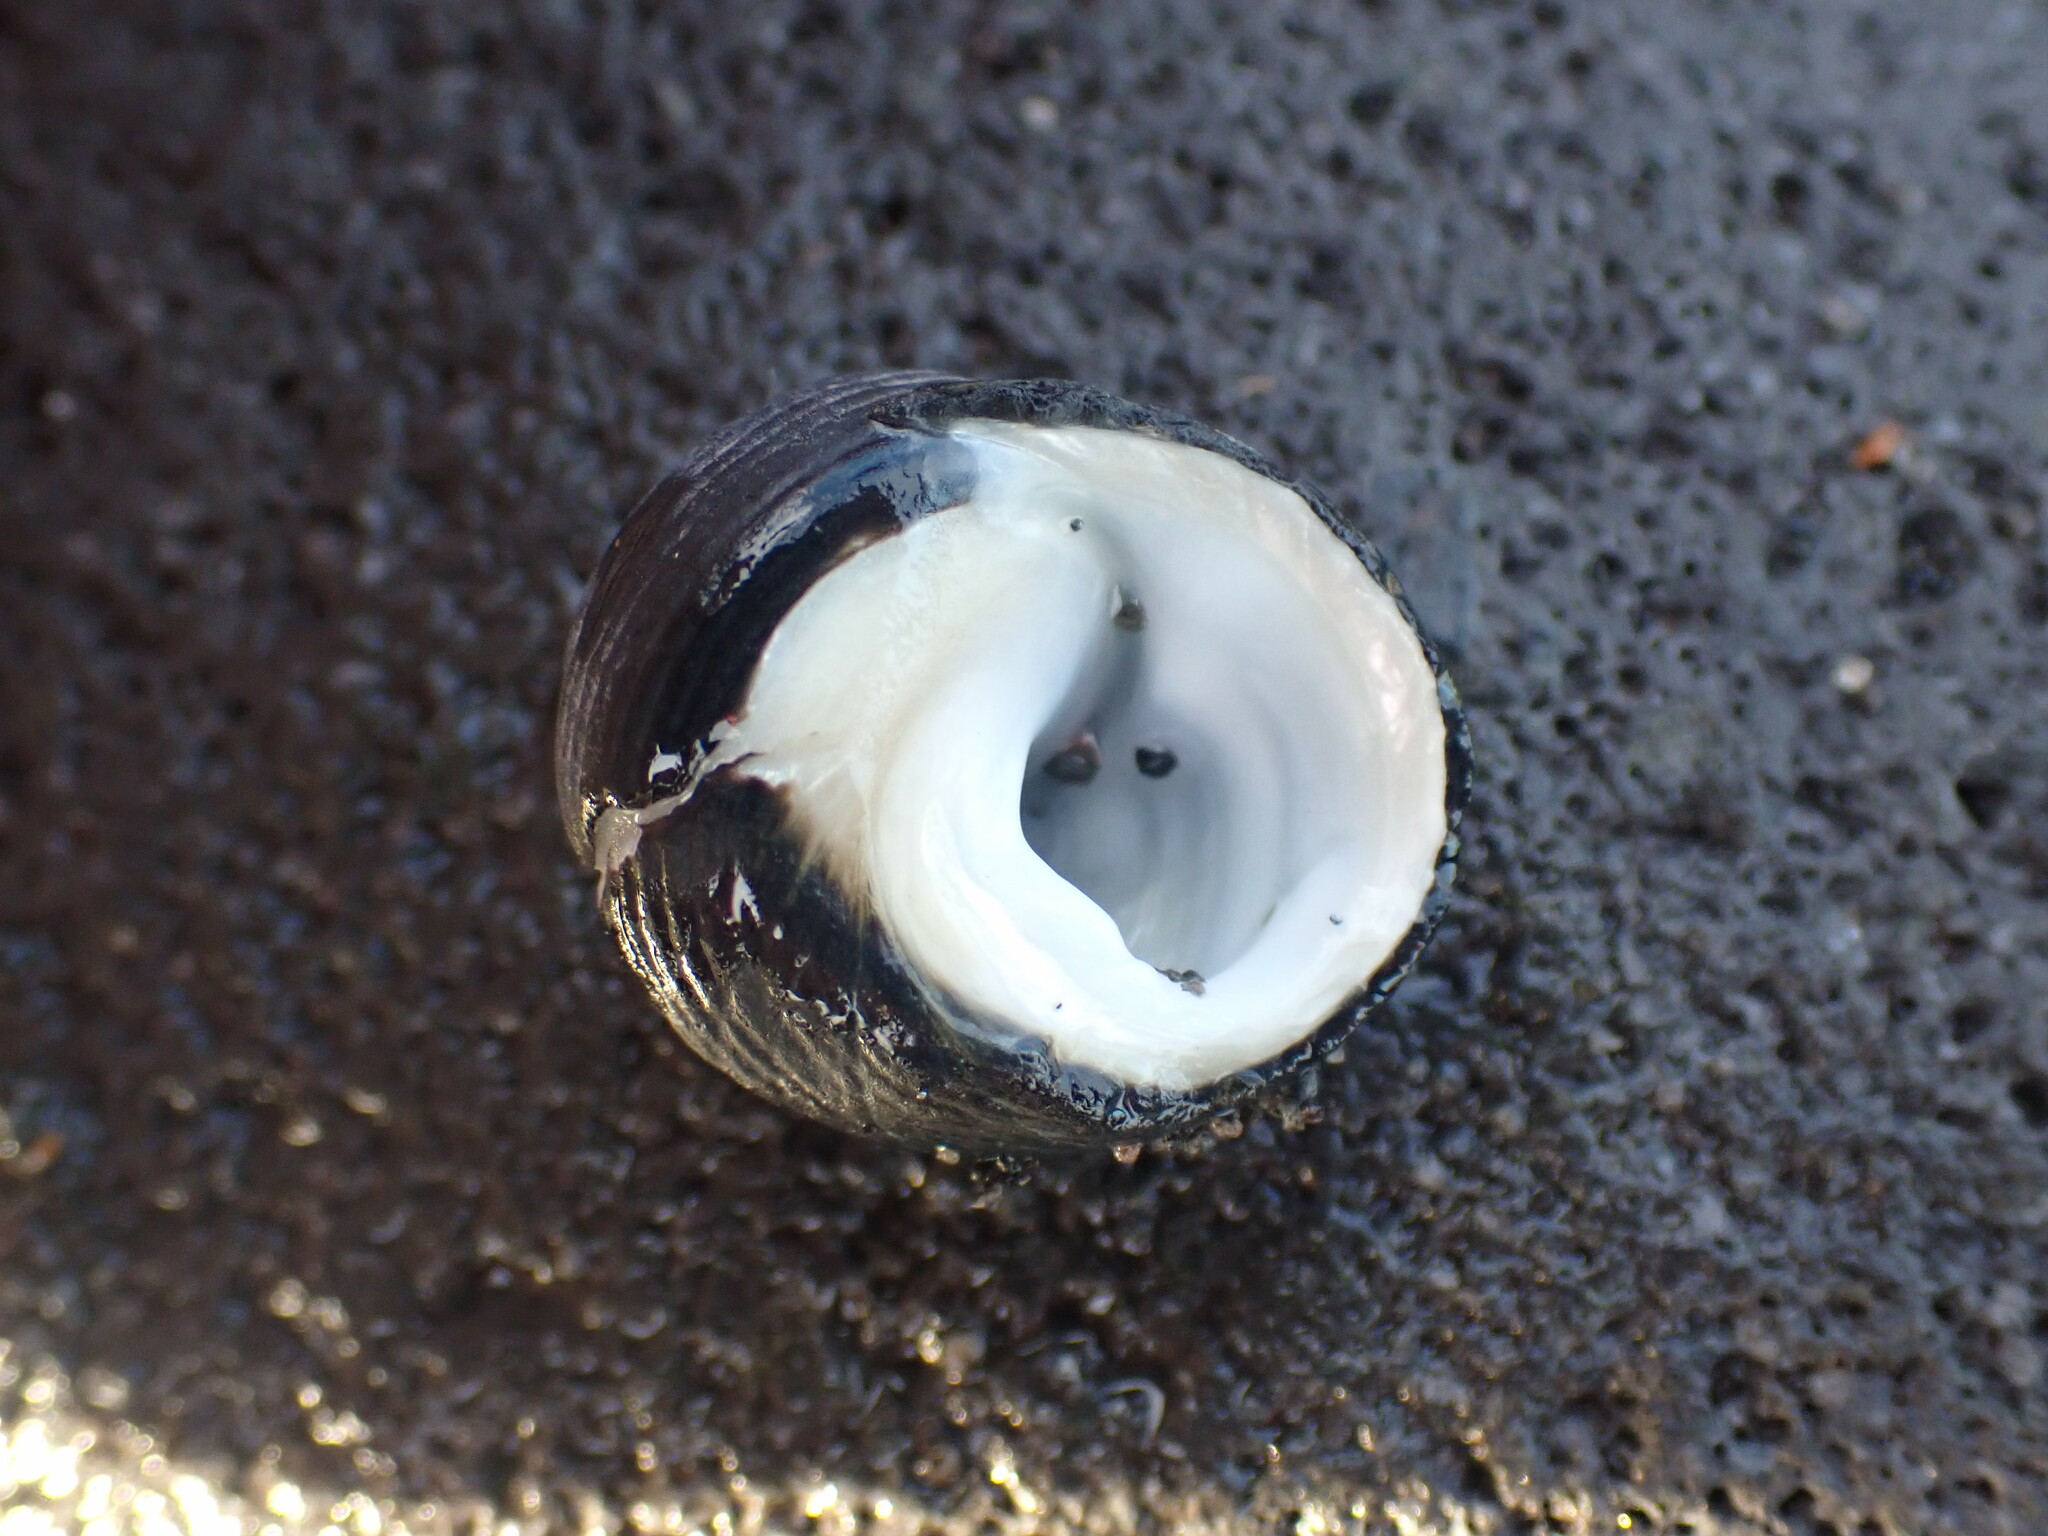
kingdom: Animalia
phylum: Mollusca
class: Gastropoda
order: Trochida
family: Trochidae
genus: Diloma
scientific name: Diloma zelandicum
